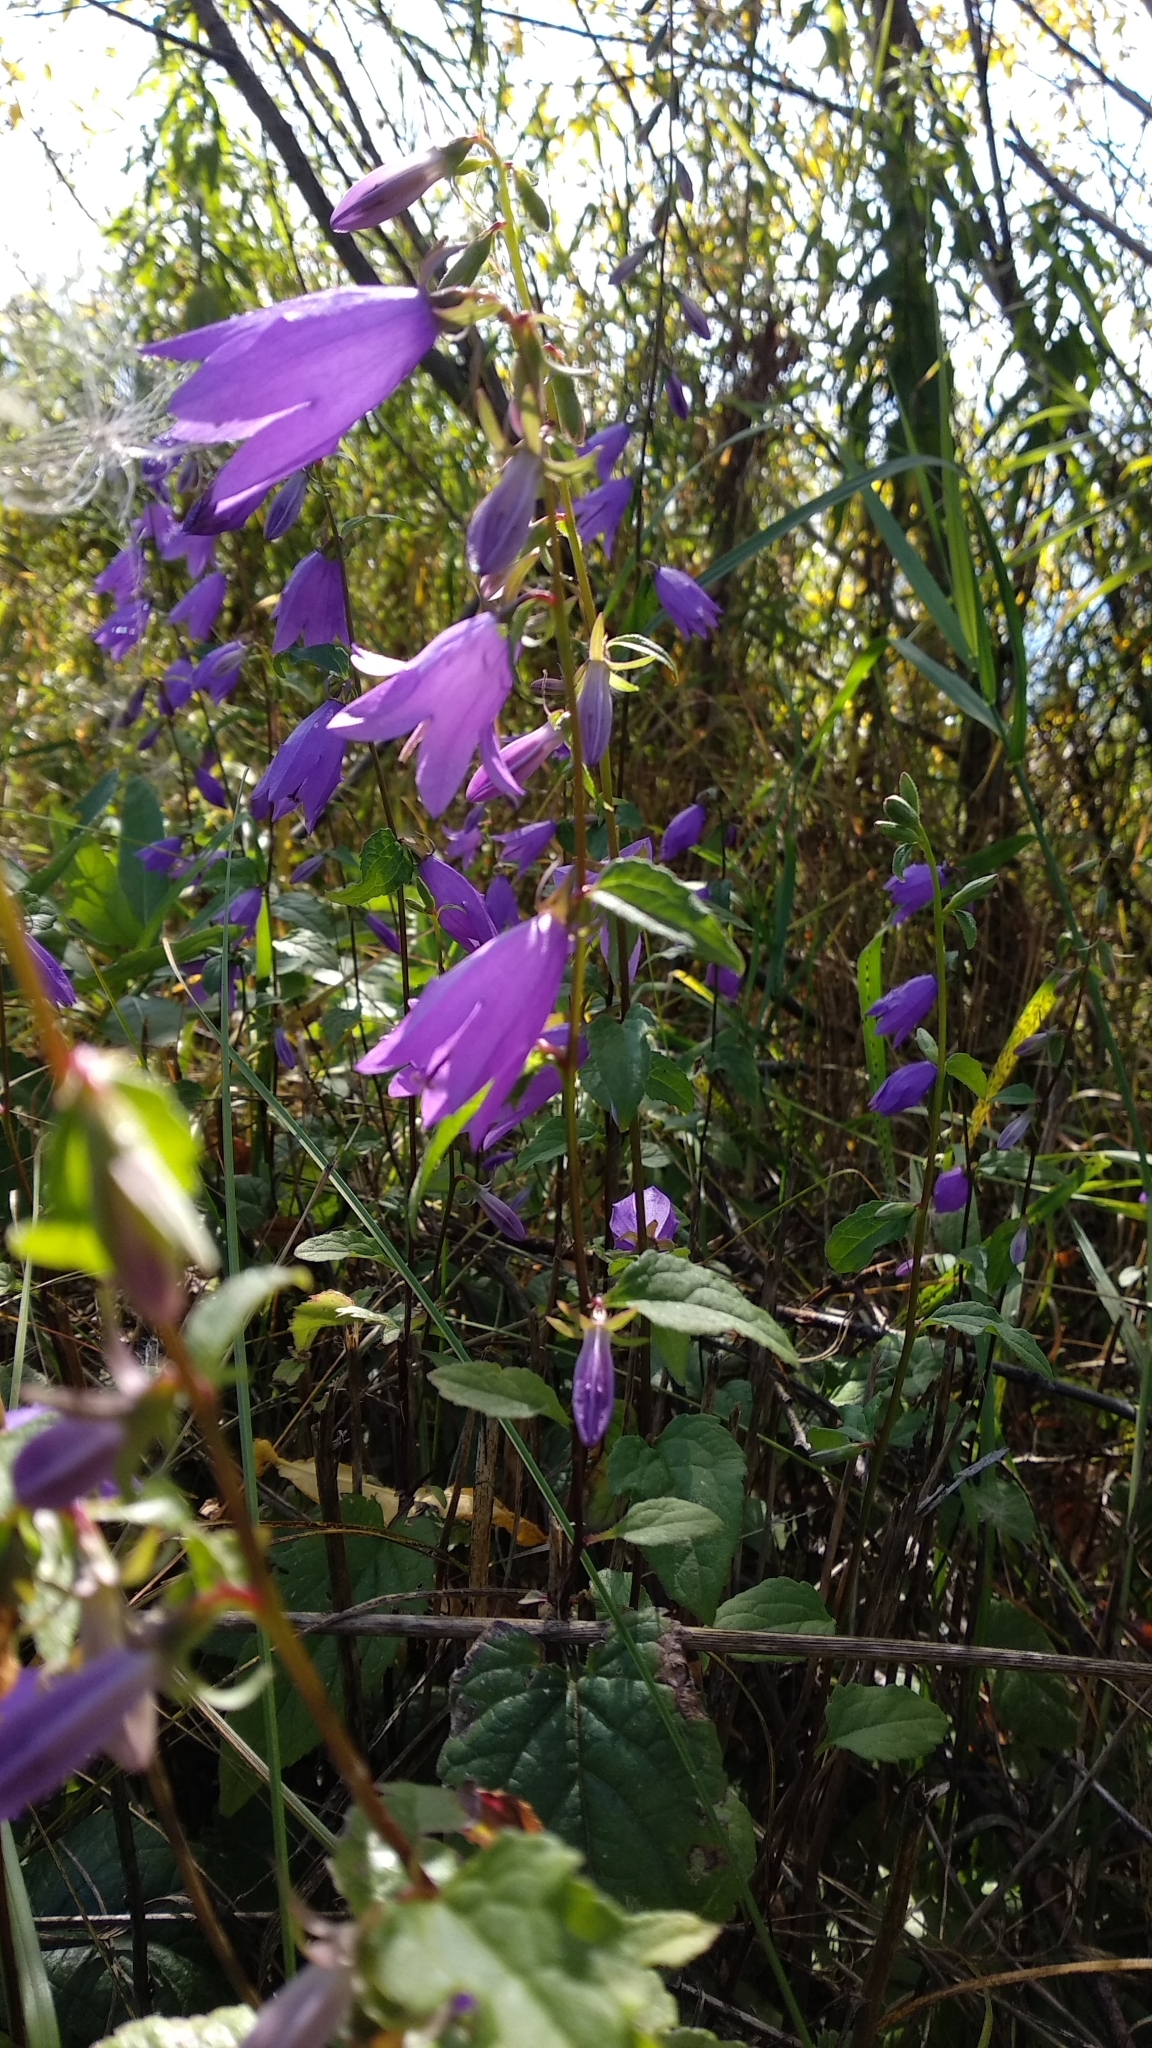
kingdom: Plantae
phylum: Tracheophyta
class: Magnoliopsida
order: Asterales
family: Campanulaceae
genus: Campanula
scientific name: Campanula rapunculoides
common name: Creeping bellflower
